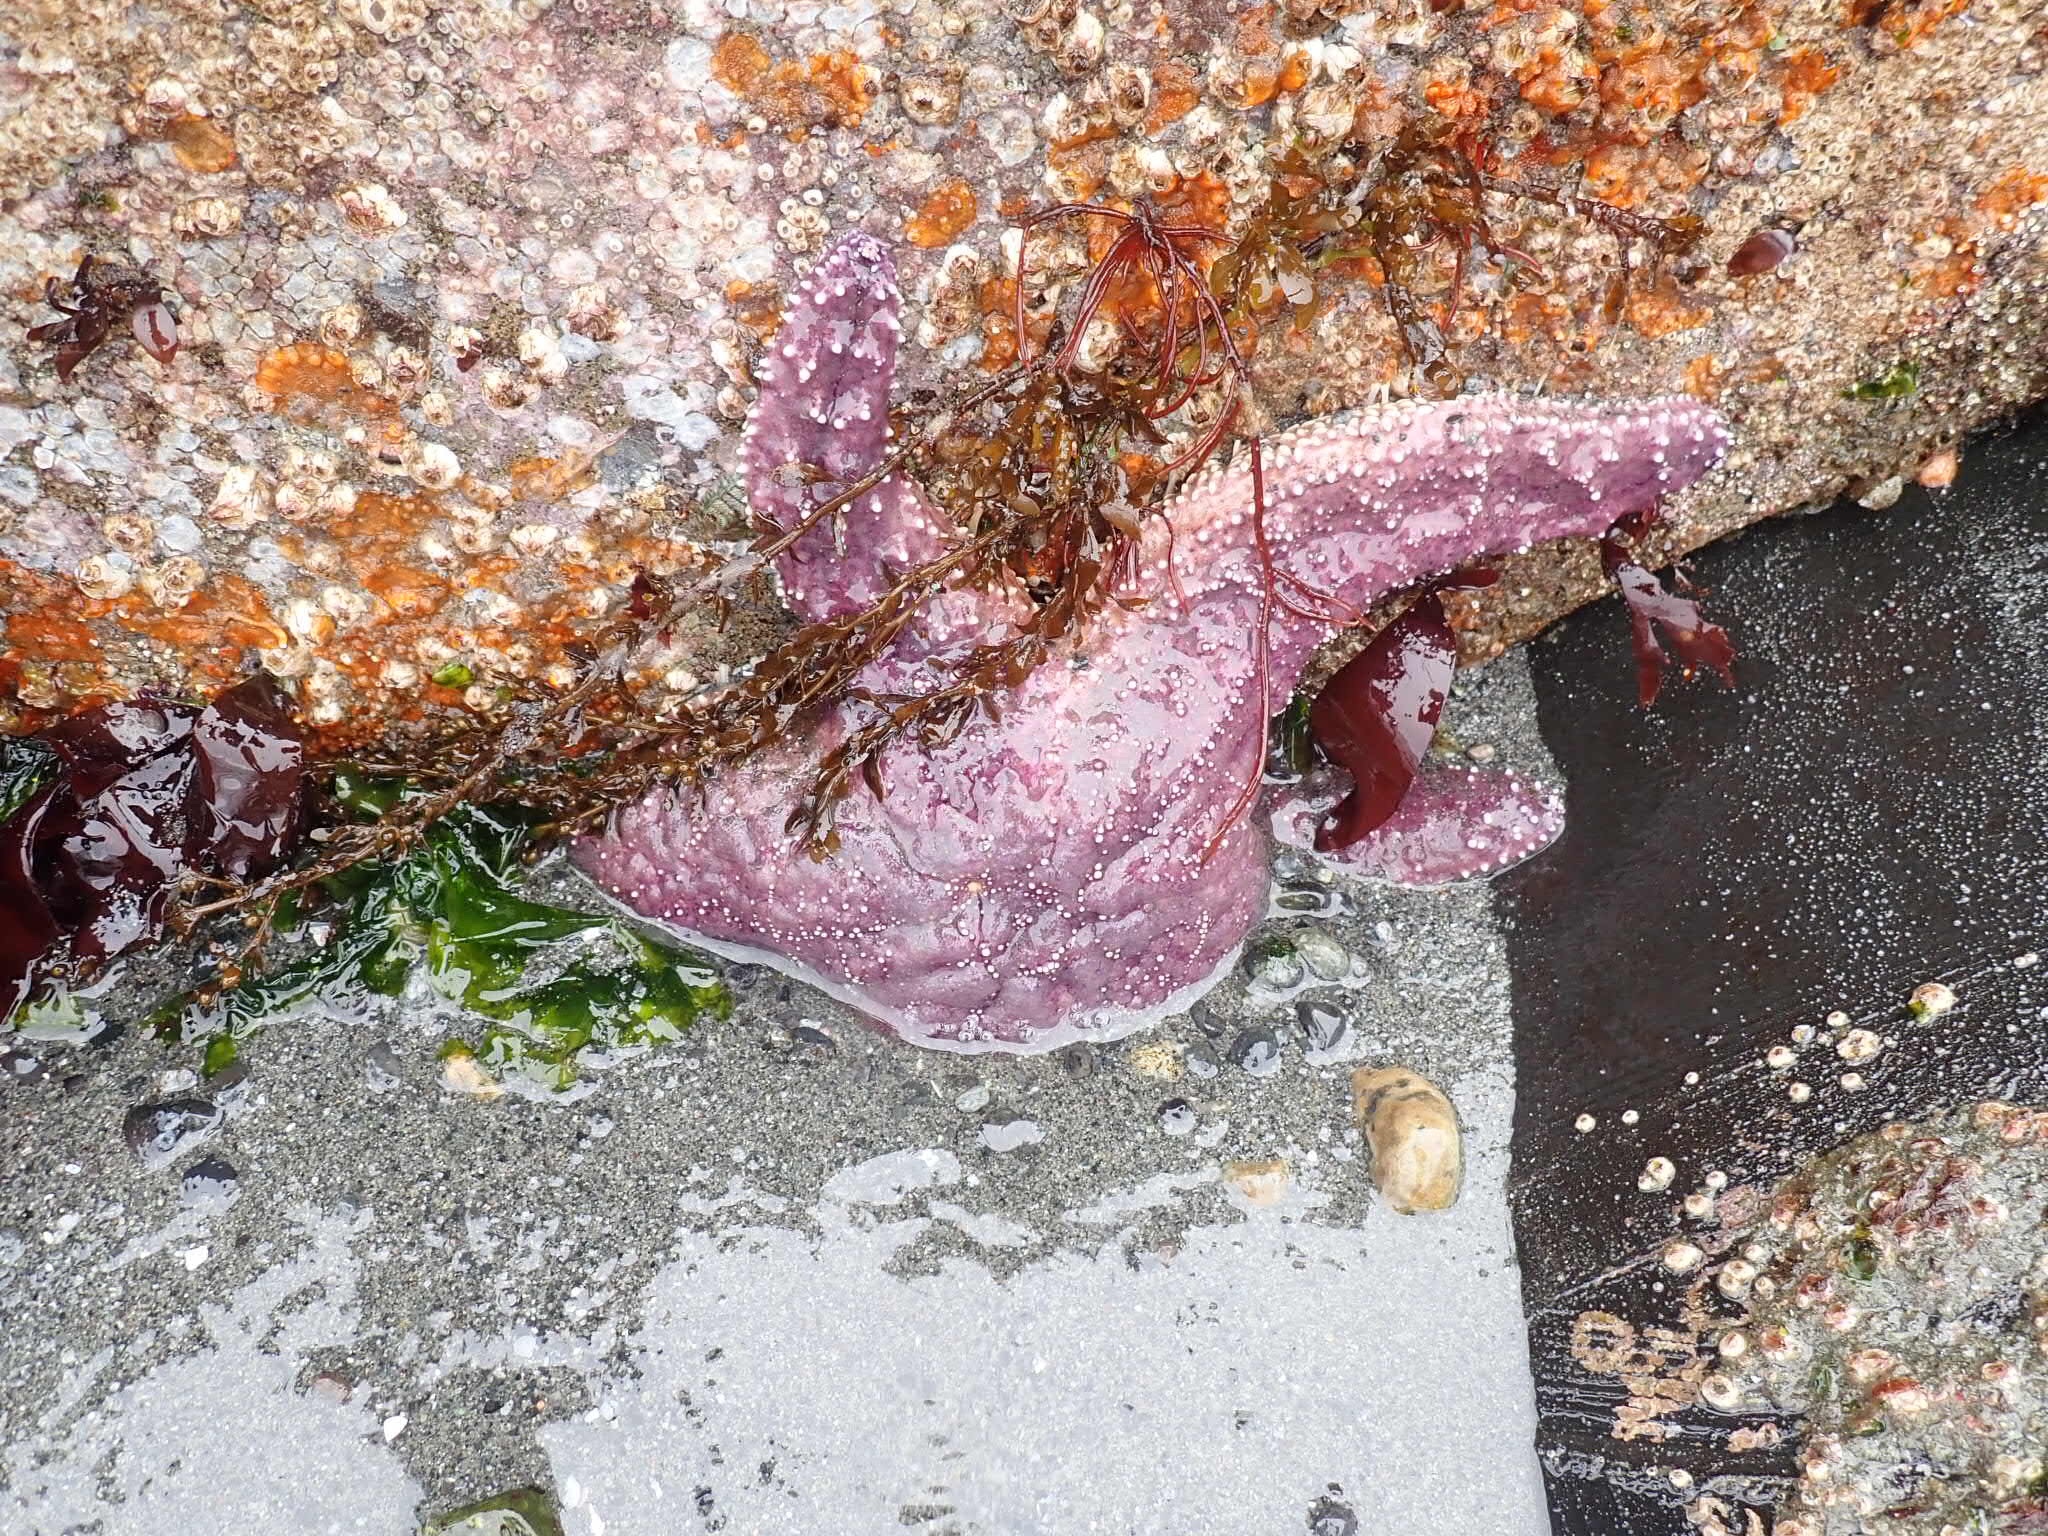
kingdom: Animalia
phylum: Echinodermata
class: Asteroidea
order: Forcipulatida
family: Asteriidae
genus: Pisaster
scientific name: Pisaster ochraceus
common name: Ochre stars
